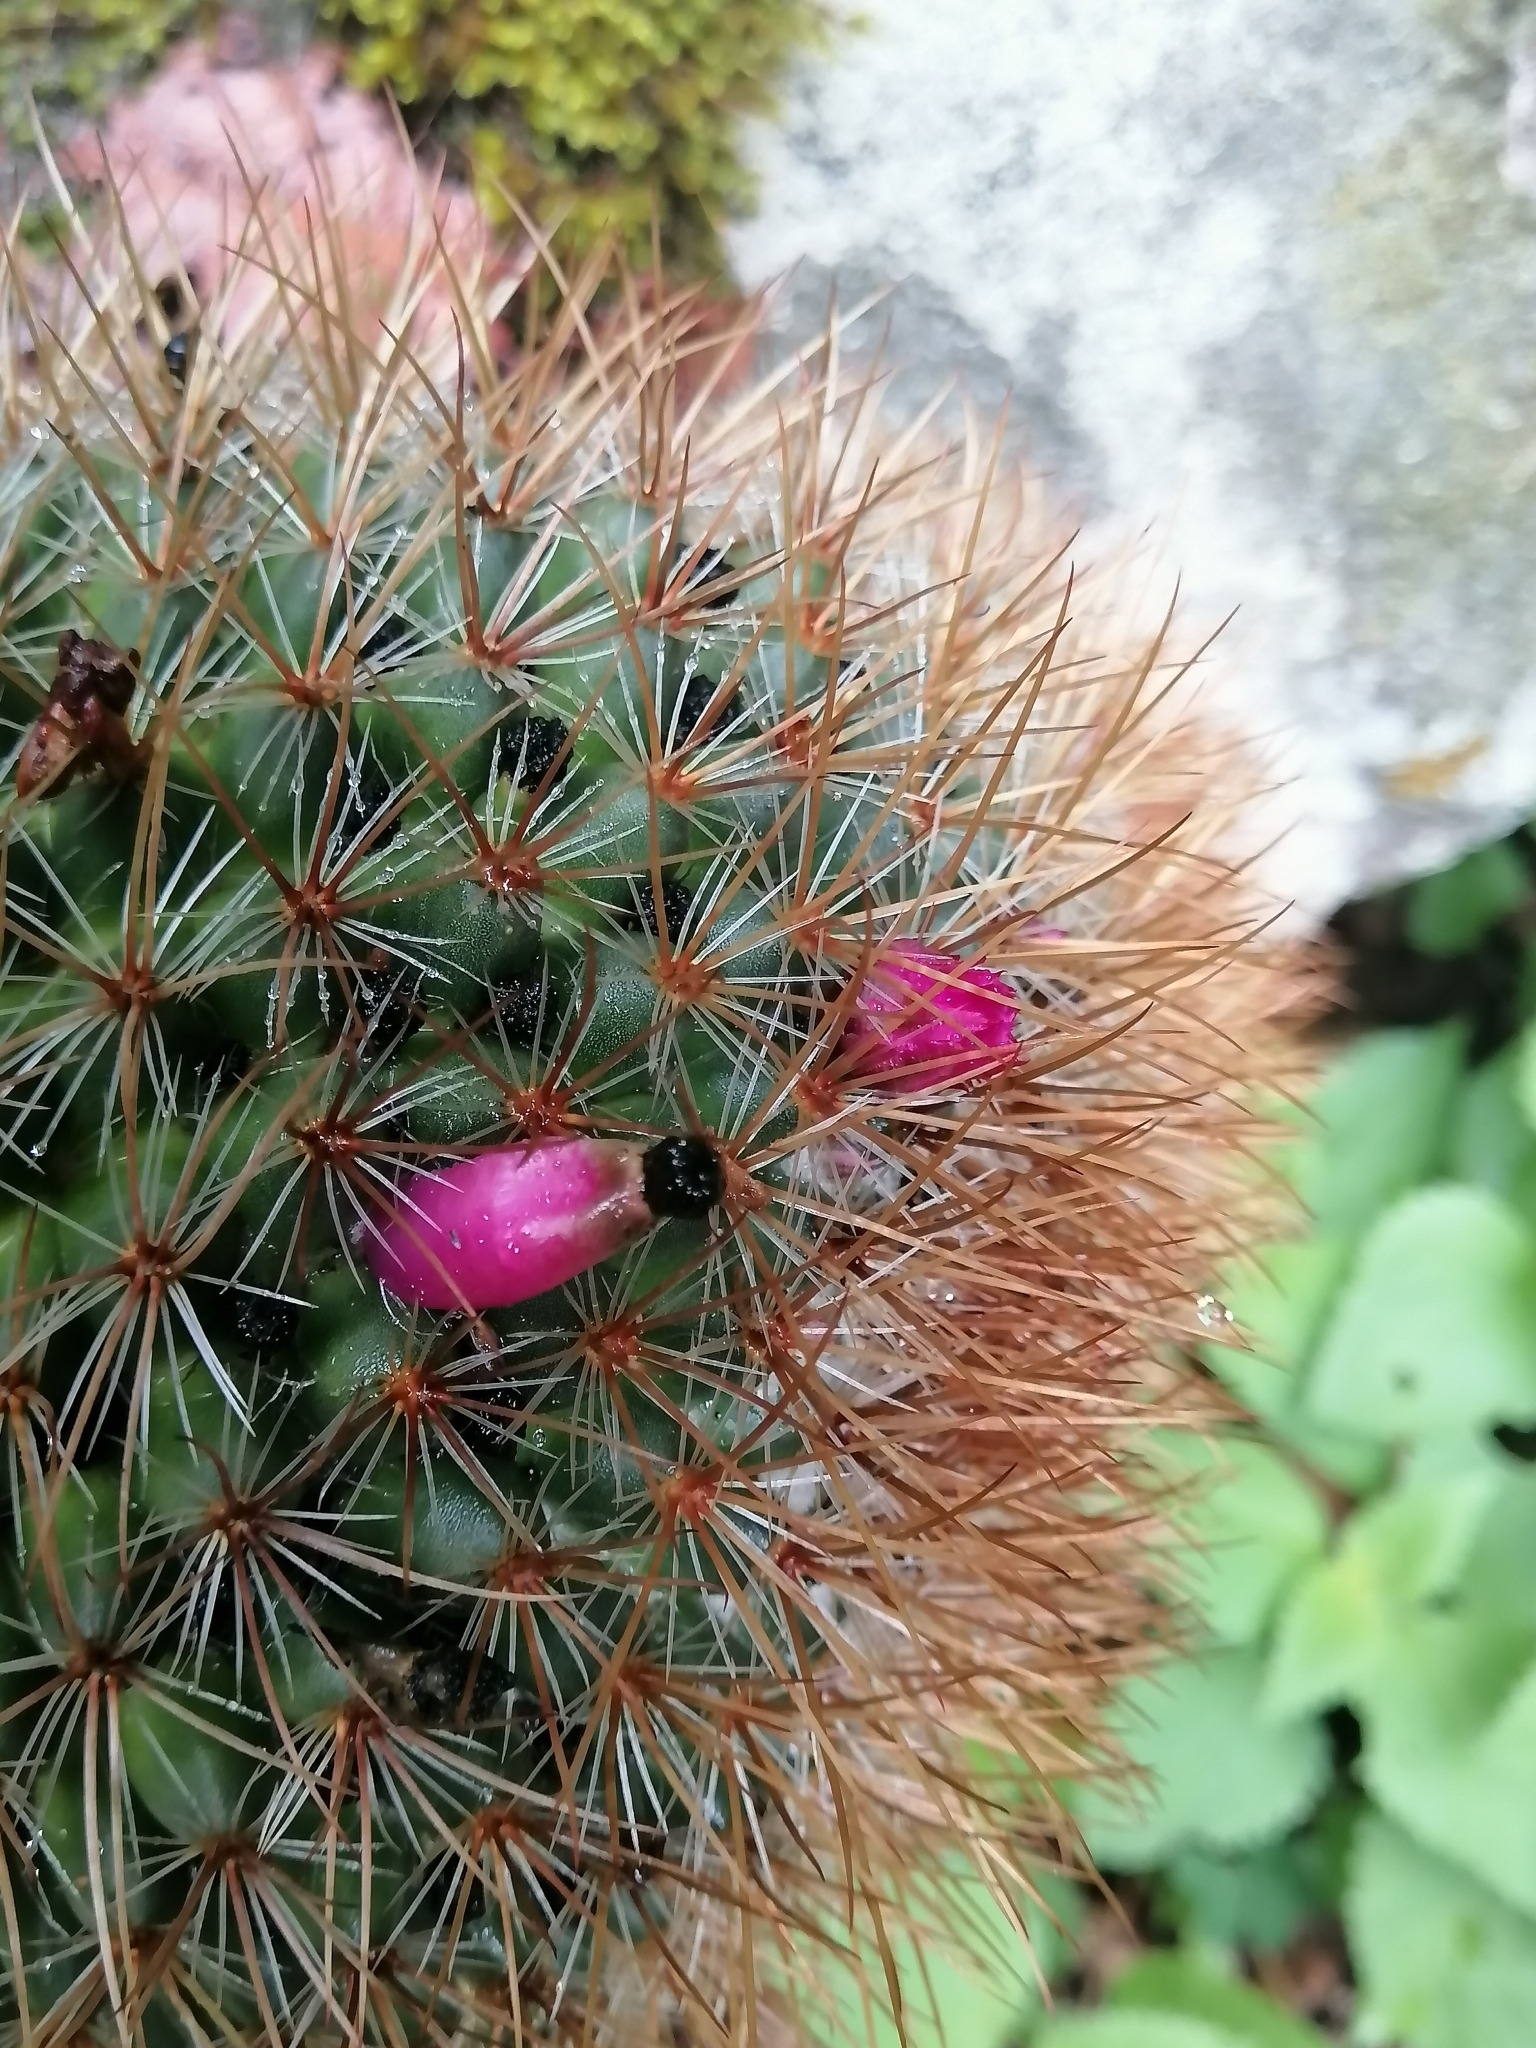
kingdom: Plantae
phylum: Tracheophyta
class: Magnoliopsida
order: Caryophyllales
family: Cactaceae
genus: Mammillaria
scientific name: Mammillaria rhodantha
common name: Rainbow pincushion
